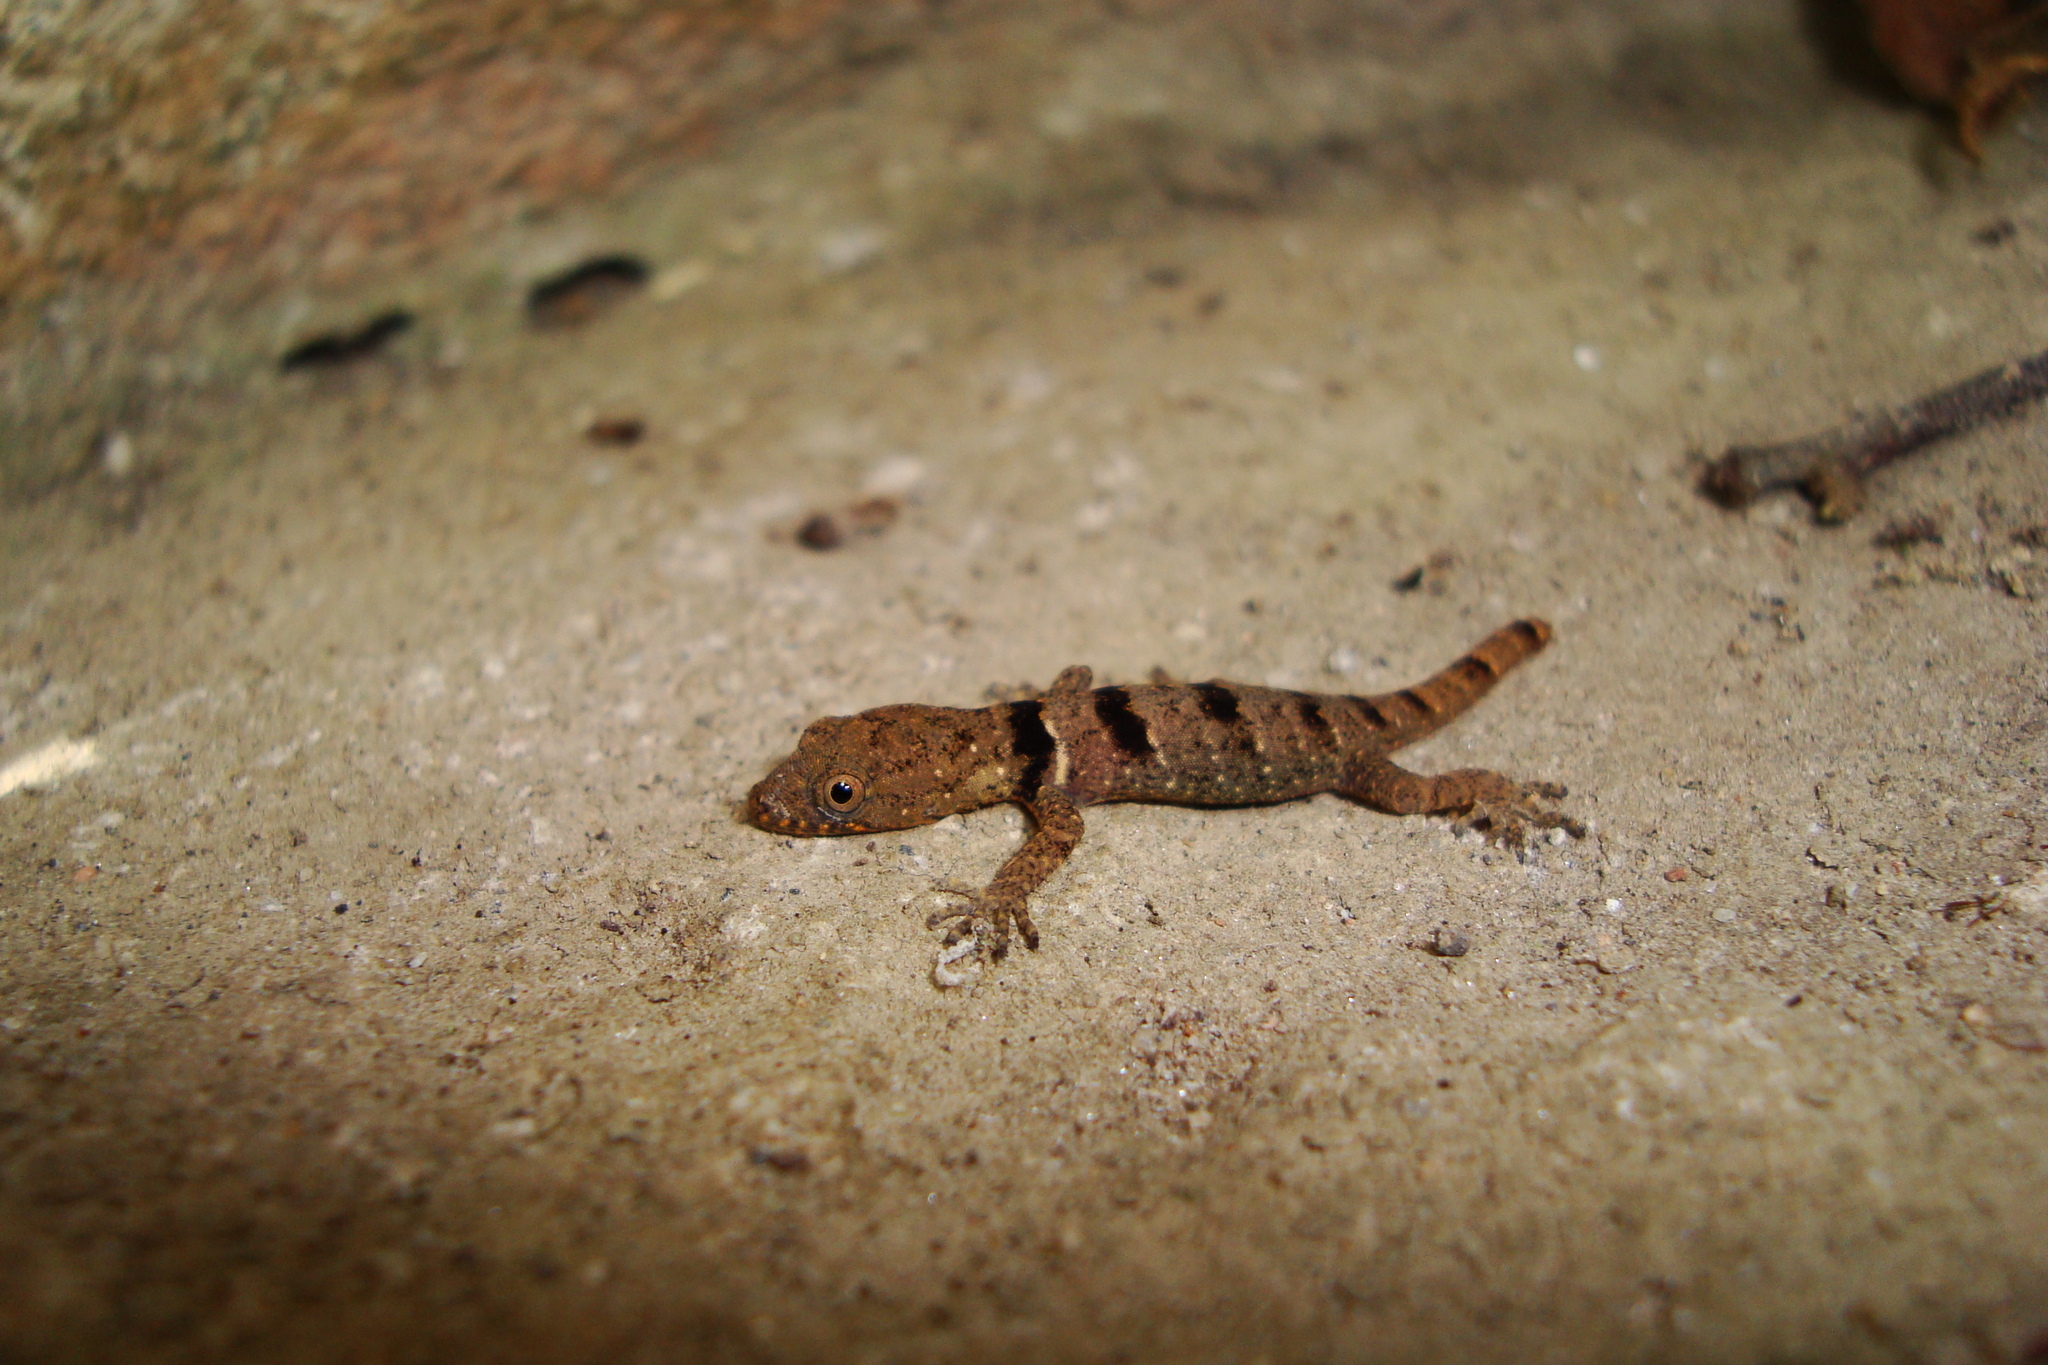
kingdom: Animalia
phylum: Chordata
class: Squamata
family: Sphaerodactylidae
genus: Gonatodes
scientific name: Gonatodes concinnatus
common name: O'shaughnessy's gecko
